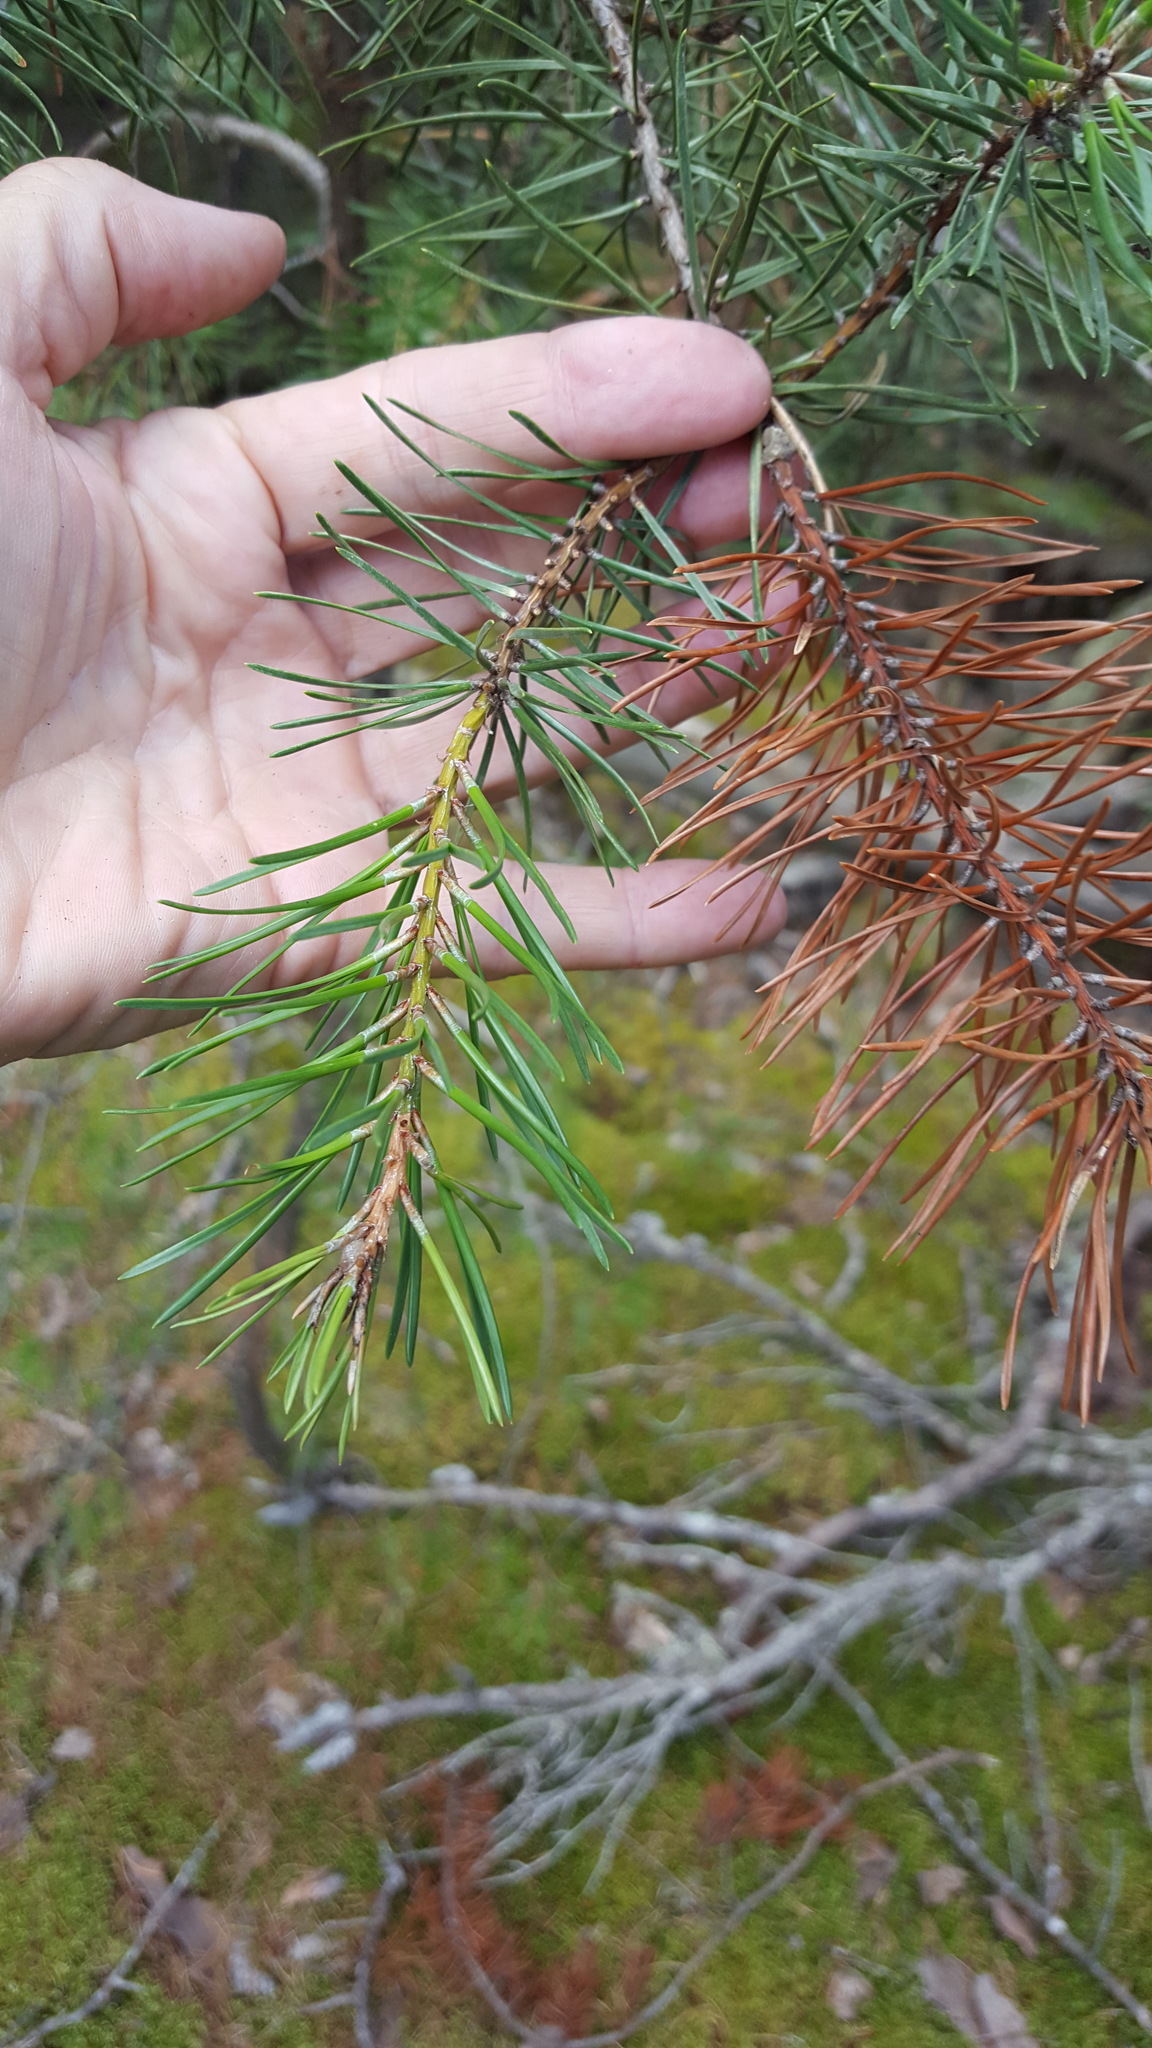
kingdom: Plantae
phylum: Tracheophyta
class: Pinopsida
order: Pinales
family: Pinaceae
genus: Pinus
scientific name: Pinus banksiana
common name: Jack pine
